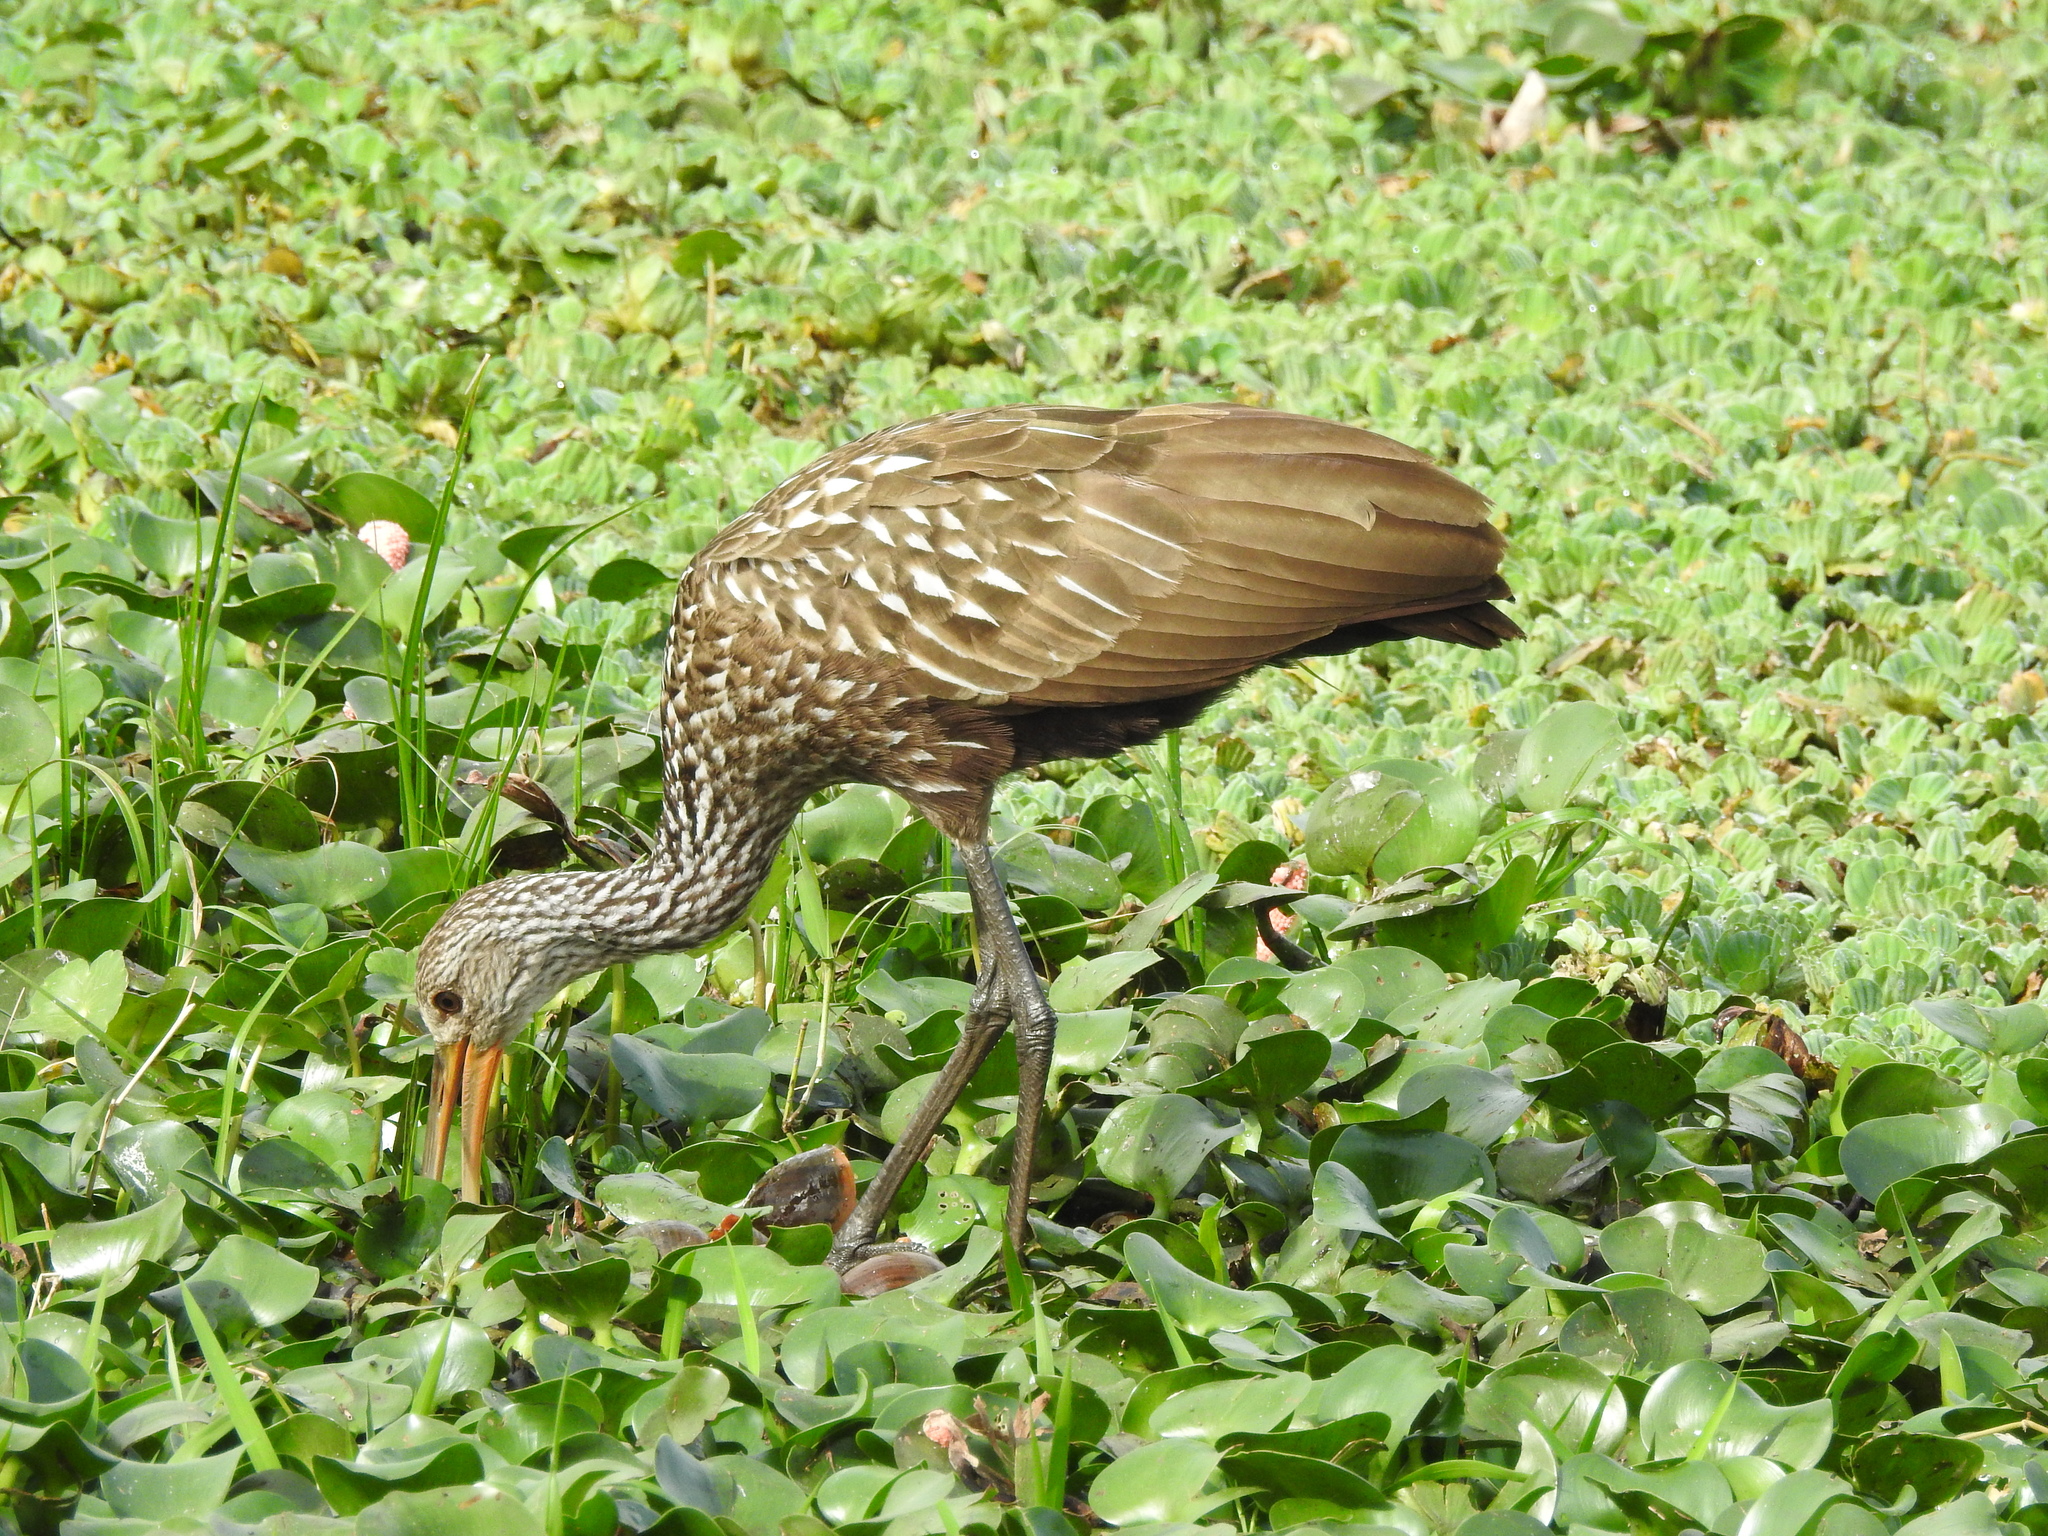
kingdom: Animalia
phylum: Chordata
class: Aves
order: Gruiformes
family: Aramidae
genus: Aramus
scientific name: Aramus guarauna
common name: Limpkin
